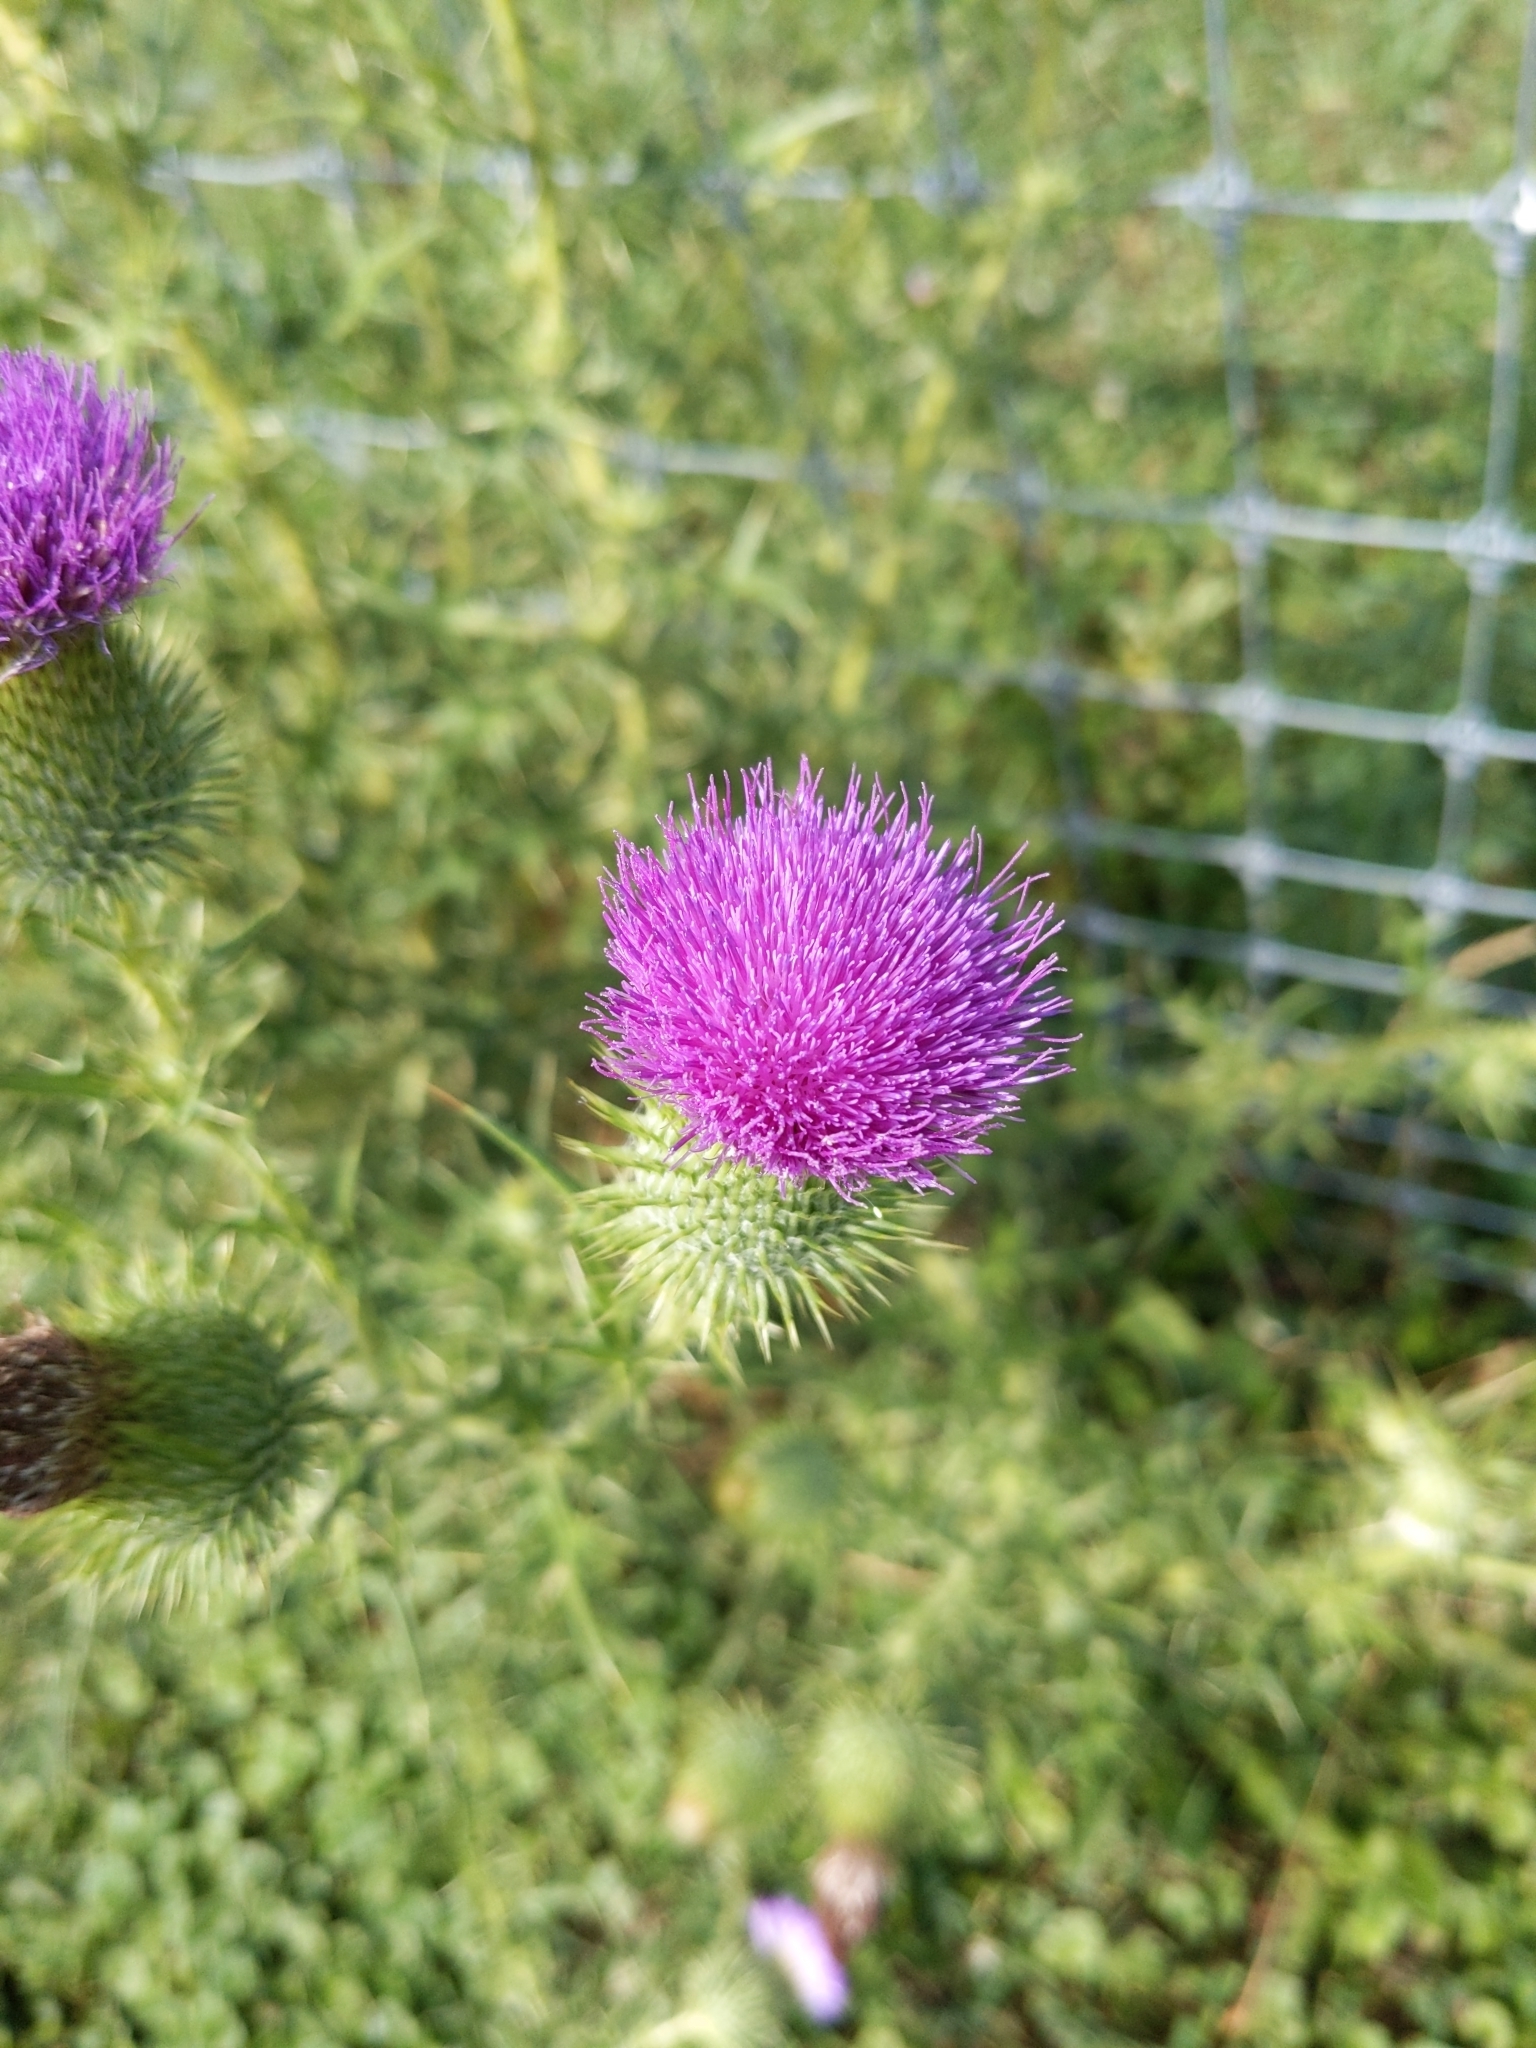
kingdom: Plantae
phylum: Tracheophyta
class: Magnoliopsida
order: Asterales
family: Asteraceae
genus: Cirsium
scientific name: Cirsium vulgare
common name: Bull thistle
